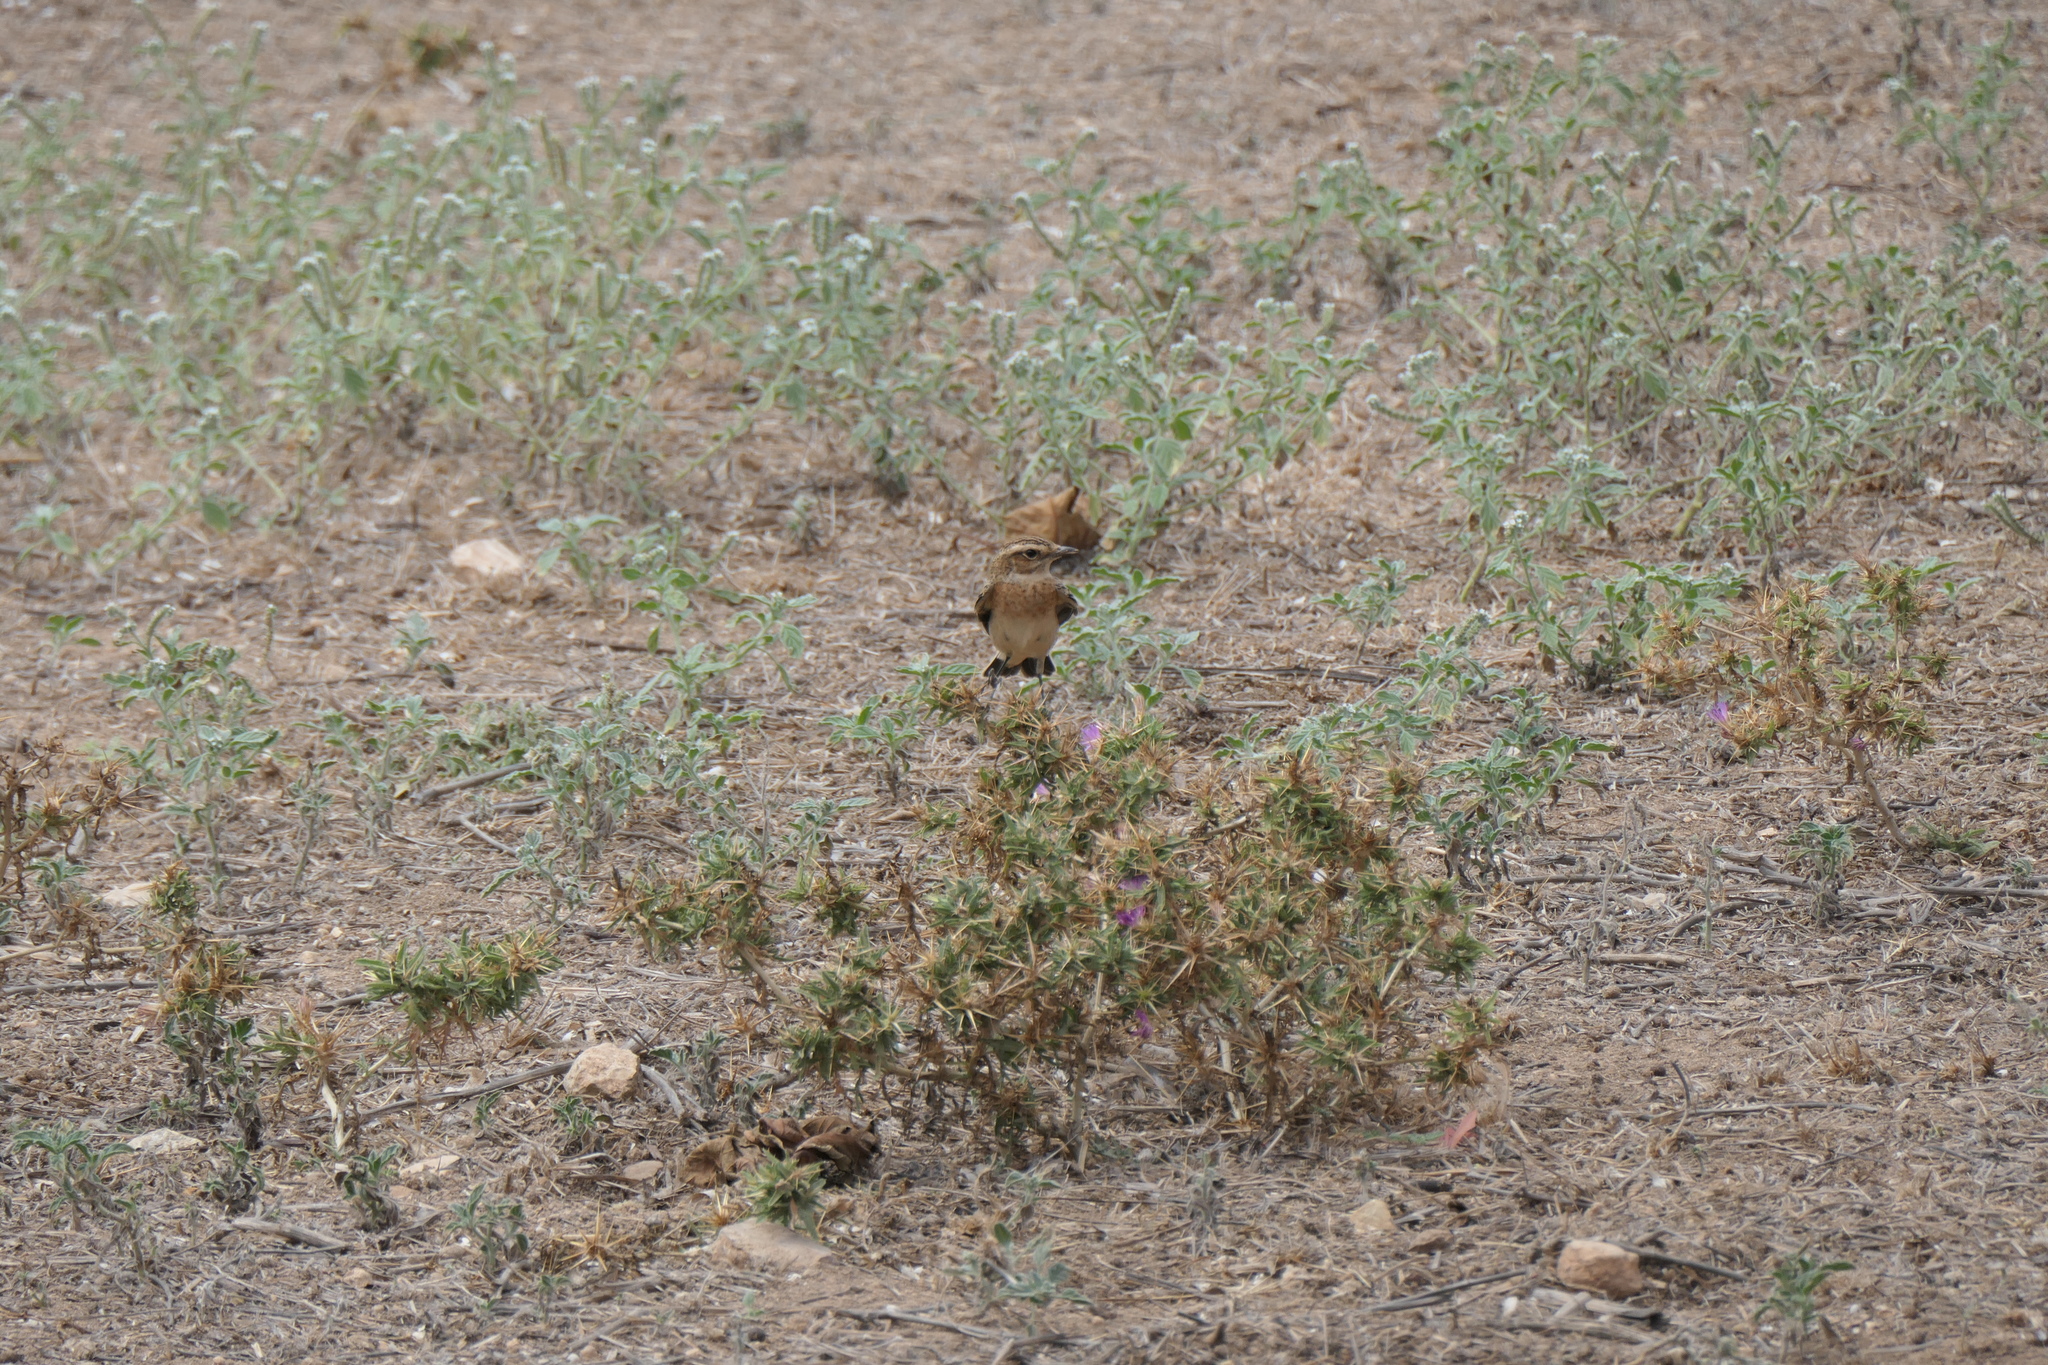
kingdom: Animalia
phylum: Chordata
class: Aves
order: Passeriformes
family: Muscicapidae
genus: Saxicola
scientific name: Saxicola rubetra
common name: Whinchat
